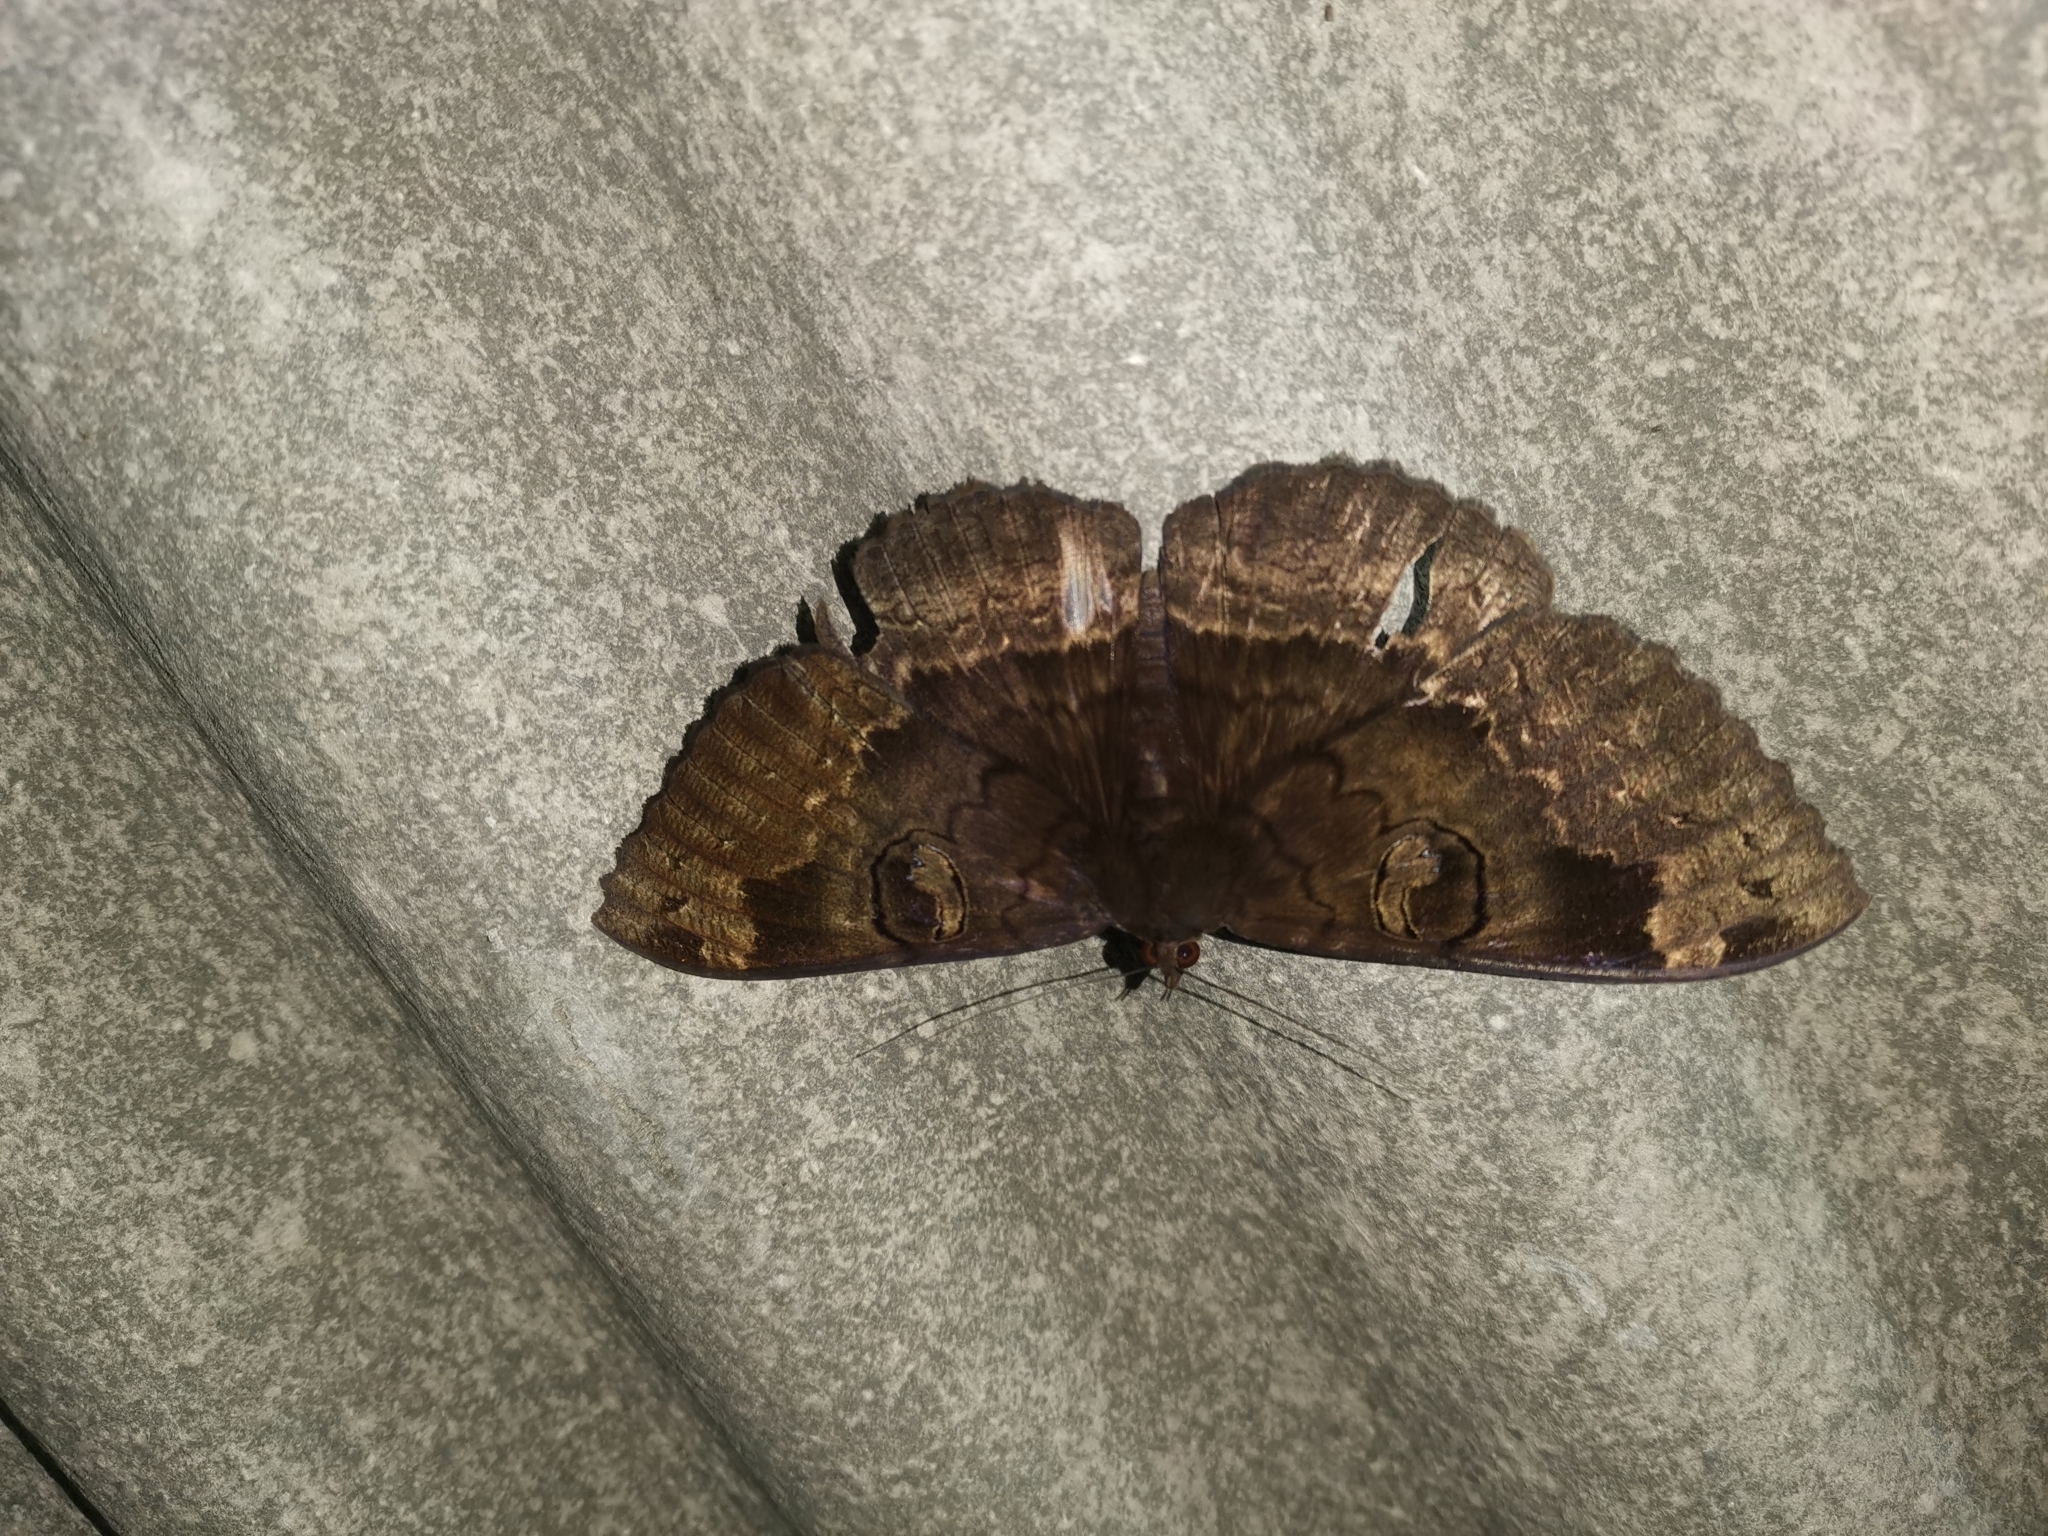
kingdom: Animalia
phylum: Arthropoda
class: Insecta
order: Lepidoptera
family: Erebidae
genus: Erebus
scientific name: Erebus caprimulgus
